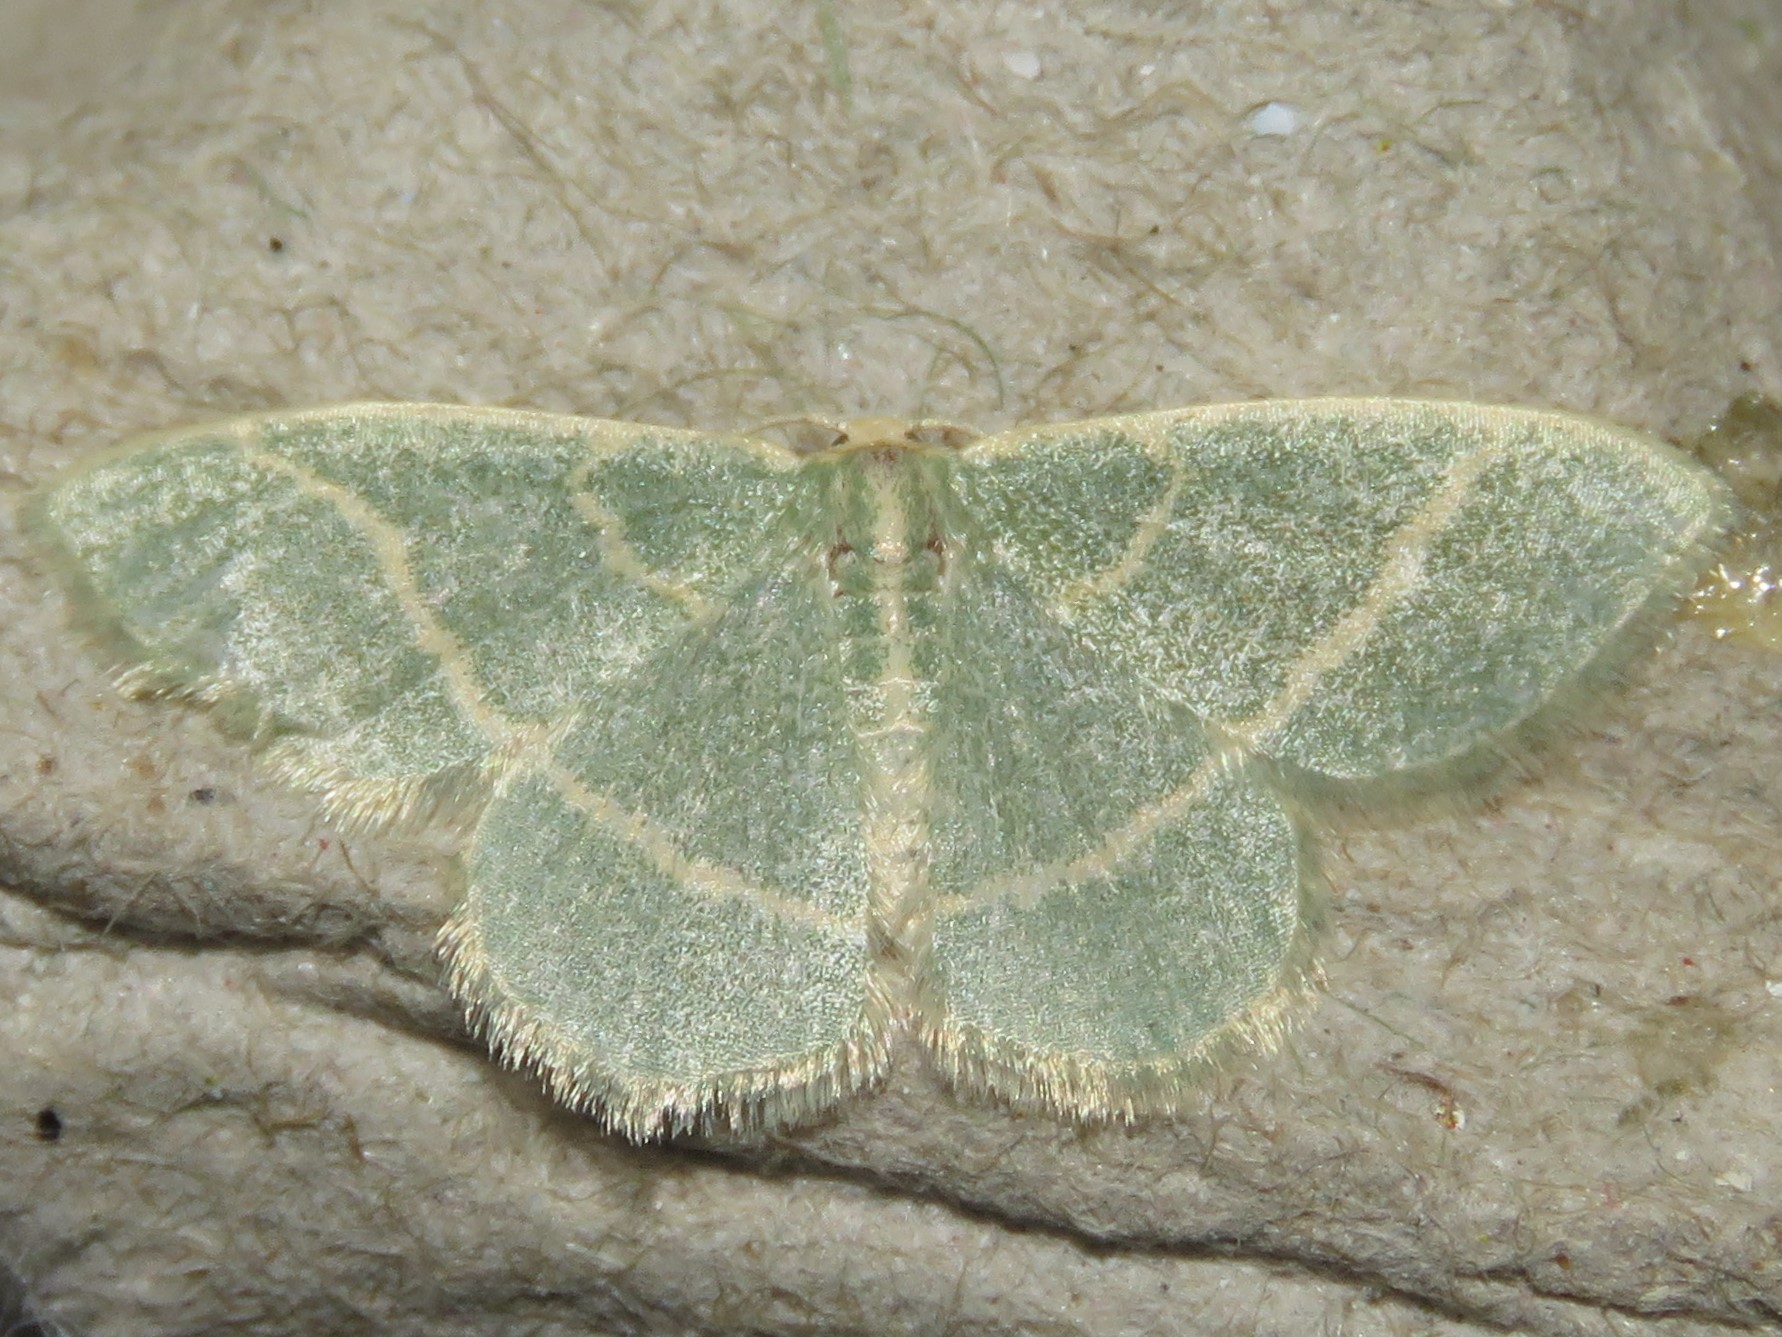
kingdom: Animalia
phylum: Arthropoda
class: Insecta
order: Lepidoptera
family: Geometridae
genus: Chlorochlamys
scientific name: Chlorochlamys chloroleucaria
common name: Blackberry looper
